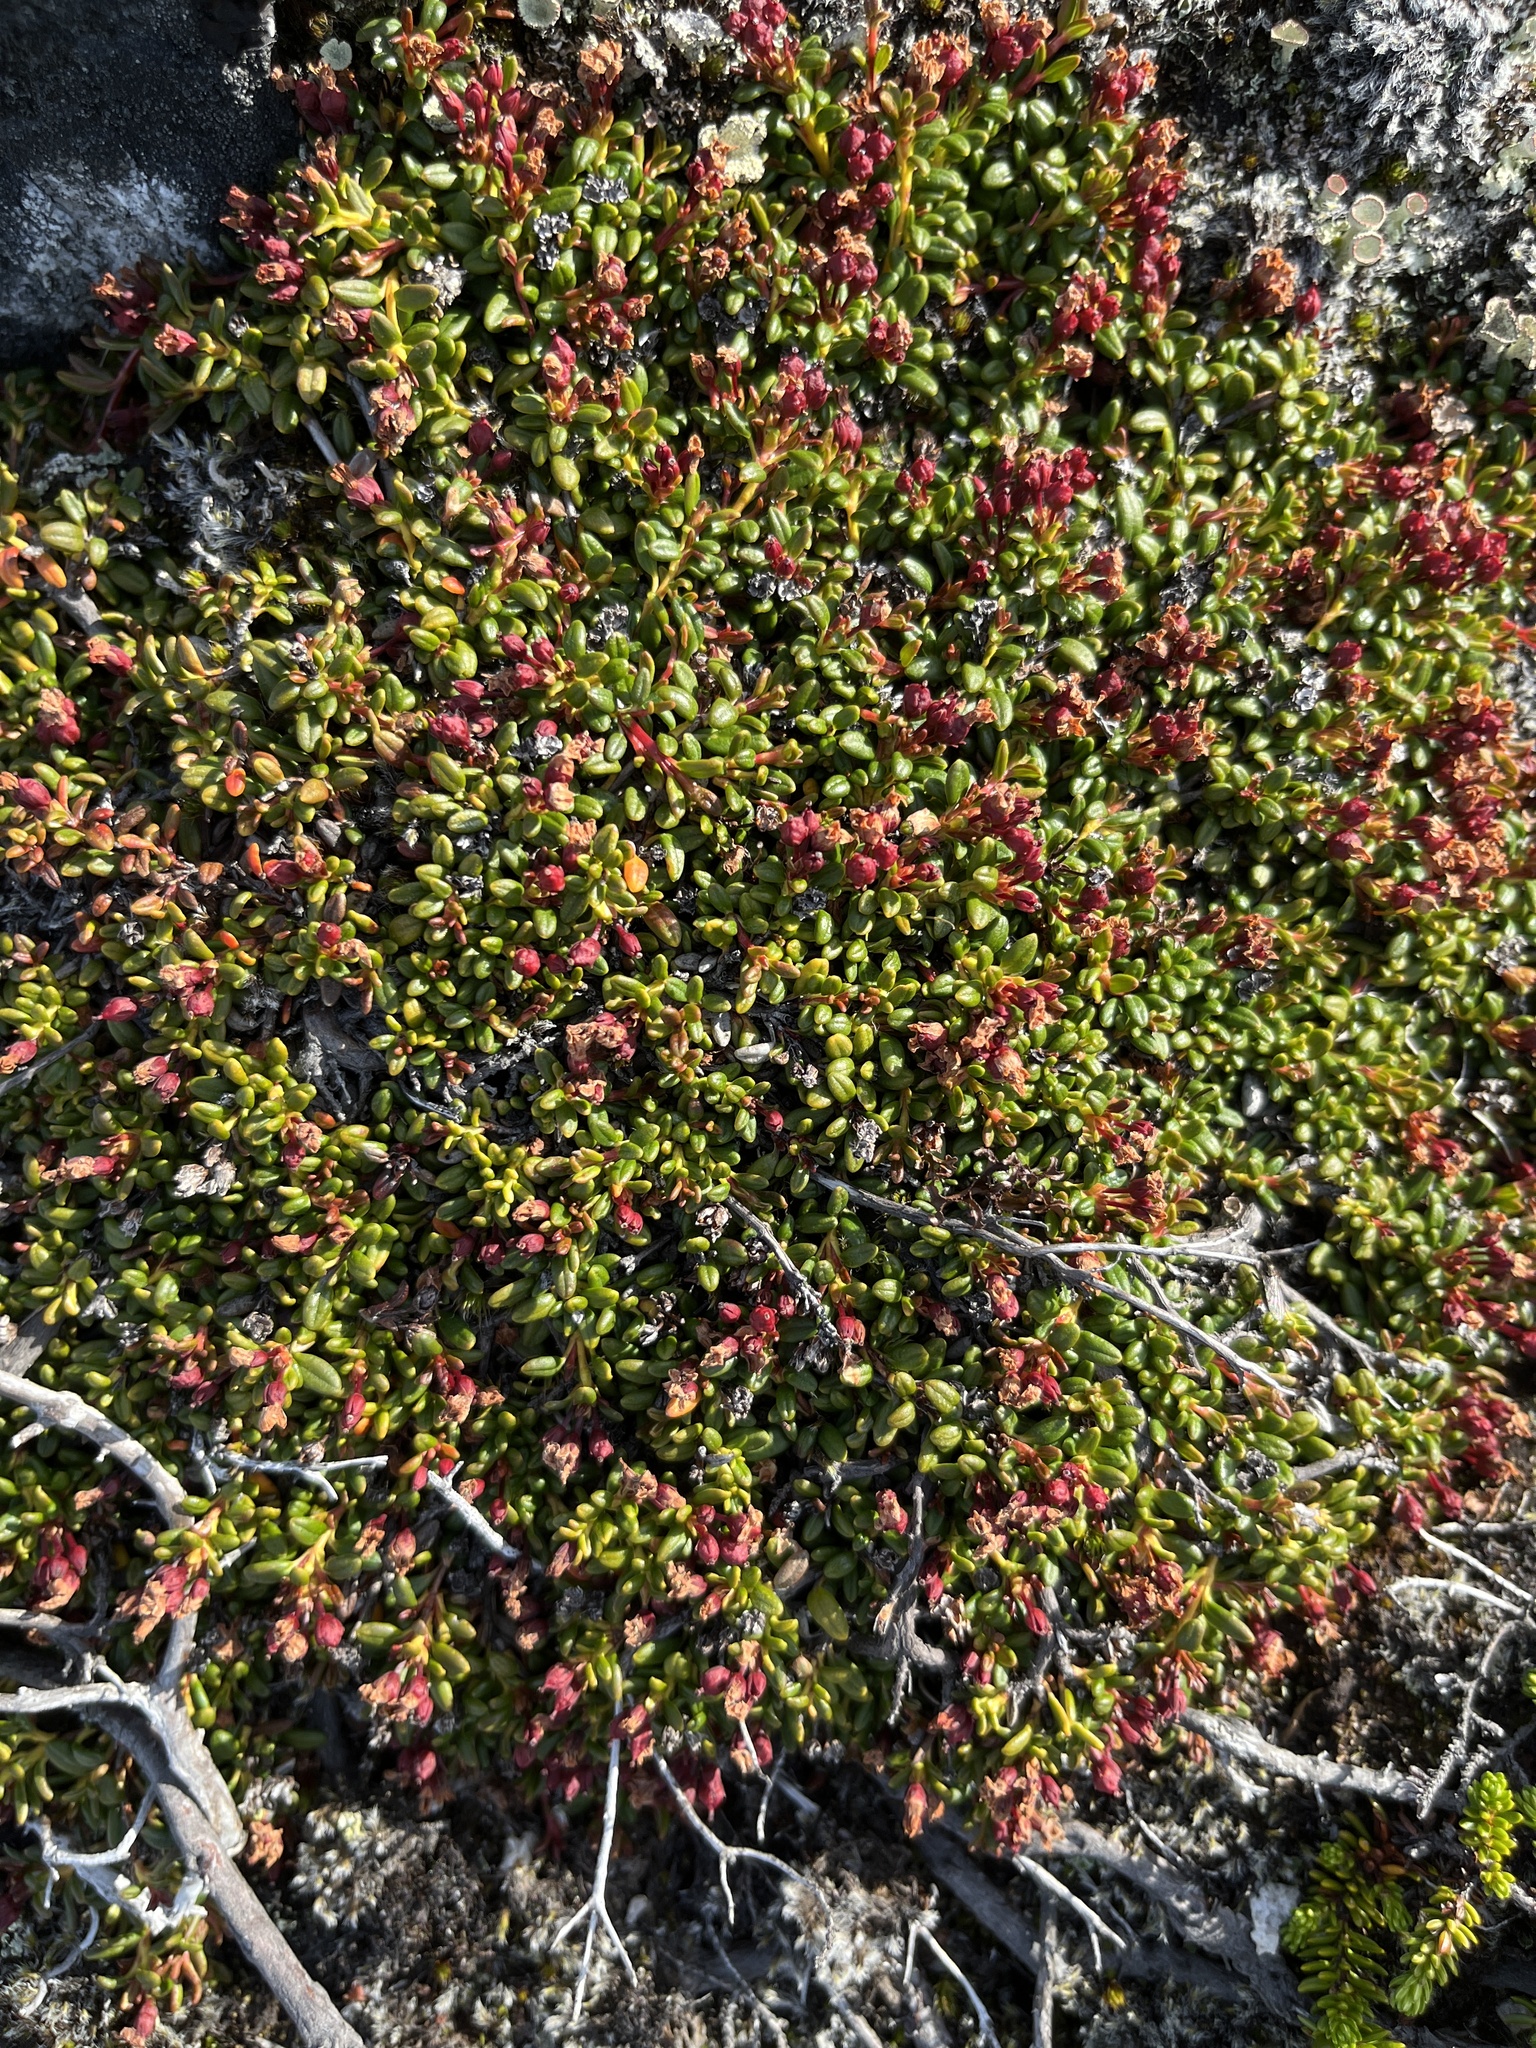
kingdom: Plantae
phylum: Tracheophyta
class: Magnoliopsida
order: Ericales
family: Ericaceae
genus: Kalmia
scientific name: Kalmia procumbens
